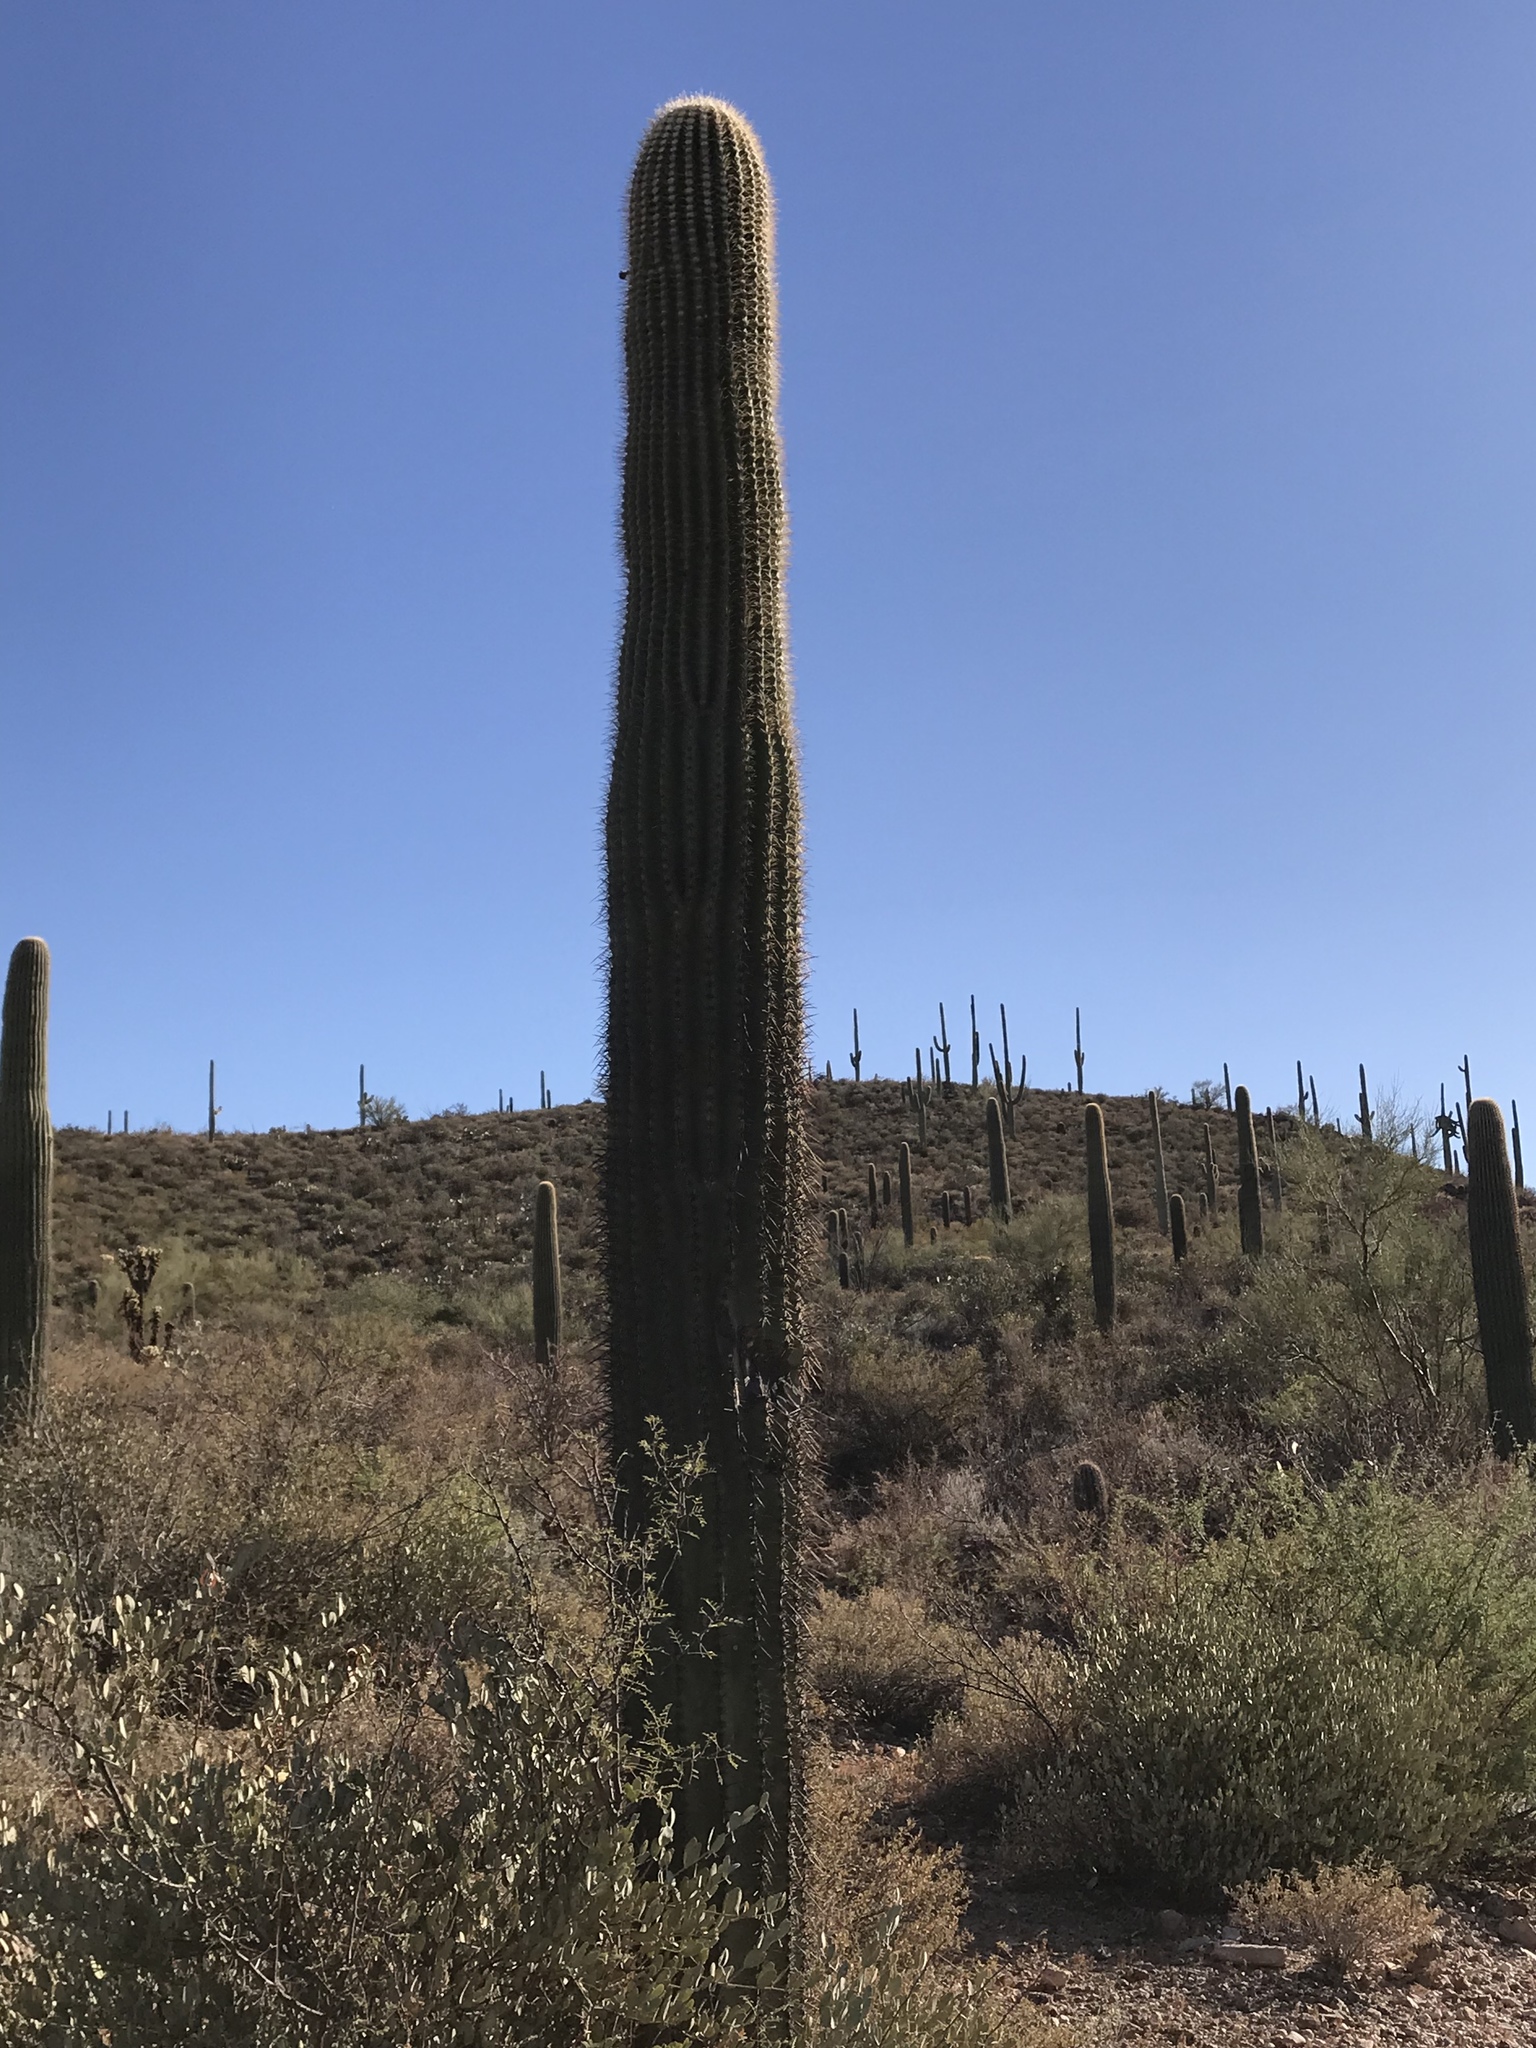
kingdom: Plantae
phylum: Tracheophyta
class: Magnoliopsida
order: Caryophyllales
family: Cactaceae
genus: Carnegiea
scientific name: Carnegiea gigantea
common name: Saguaro
